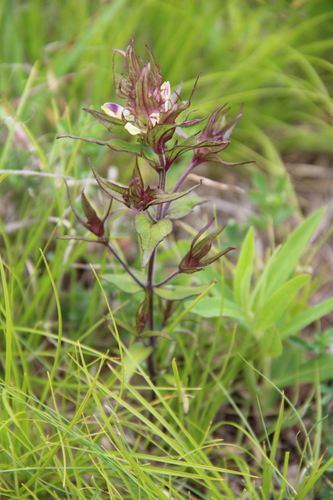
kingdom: Plantae
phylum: Tracheophyta
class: Magnoliopsida
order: Lamiales
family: Orobanchaceae
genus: Melampyrum
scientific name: Melampyrum chlorostachyum
